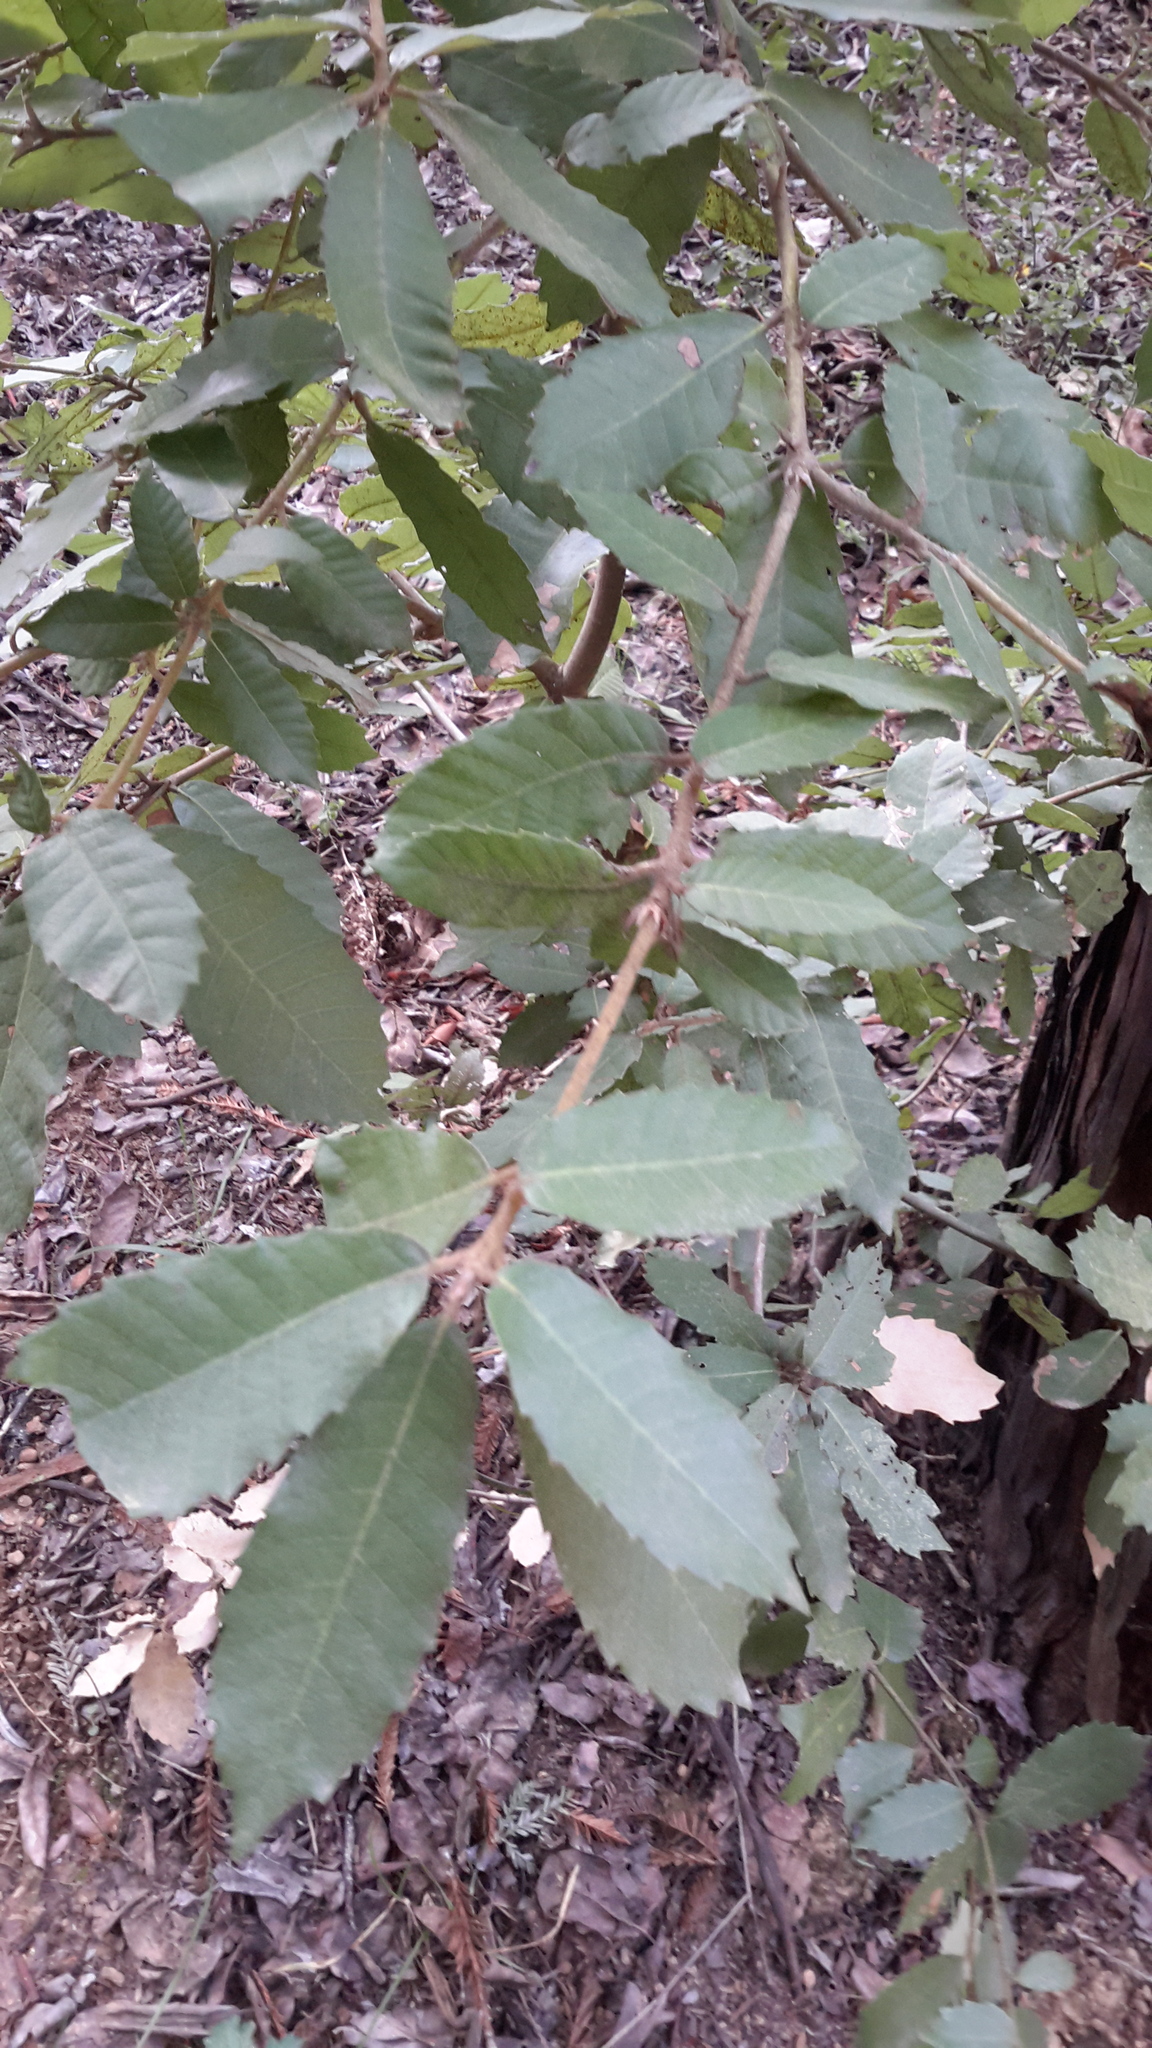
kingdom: Plantae
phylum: Tracheophyta
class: Magnoliopsida
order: Fagales
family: Fagaceae
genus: Notholithocarpus
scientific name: Notholithocarpus densiflorus
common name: Tan bark oak
